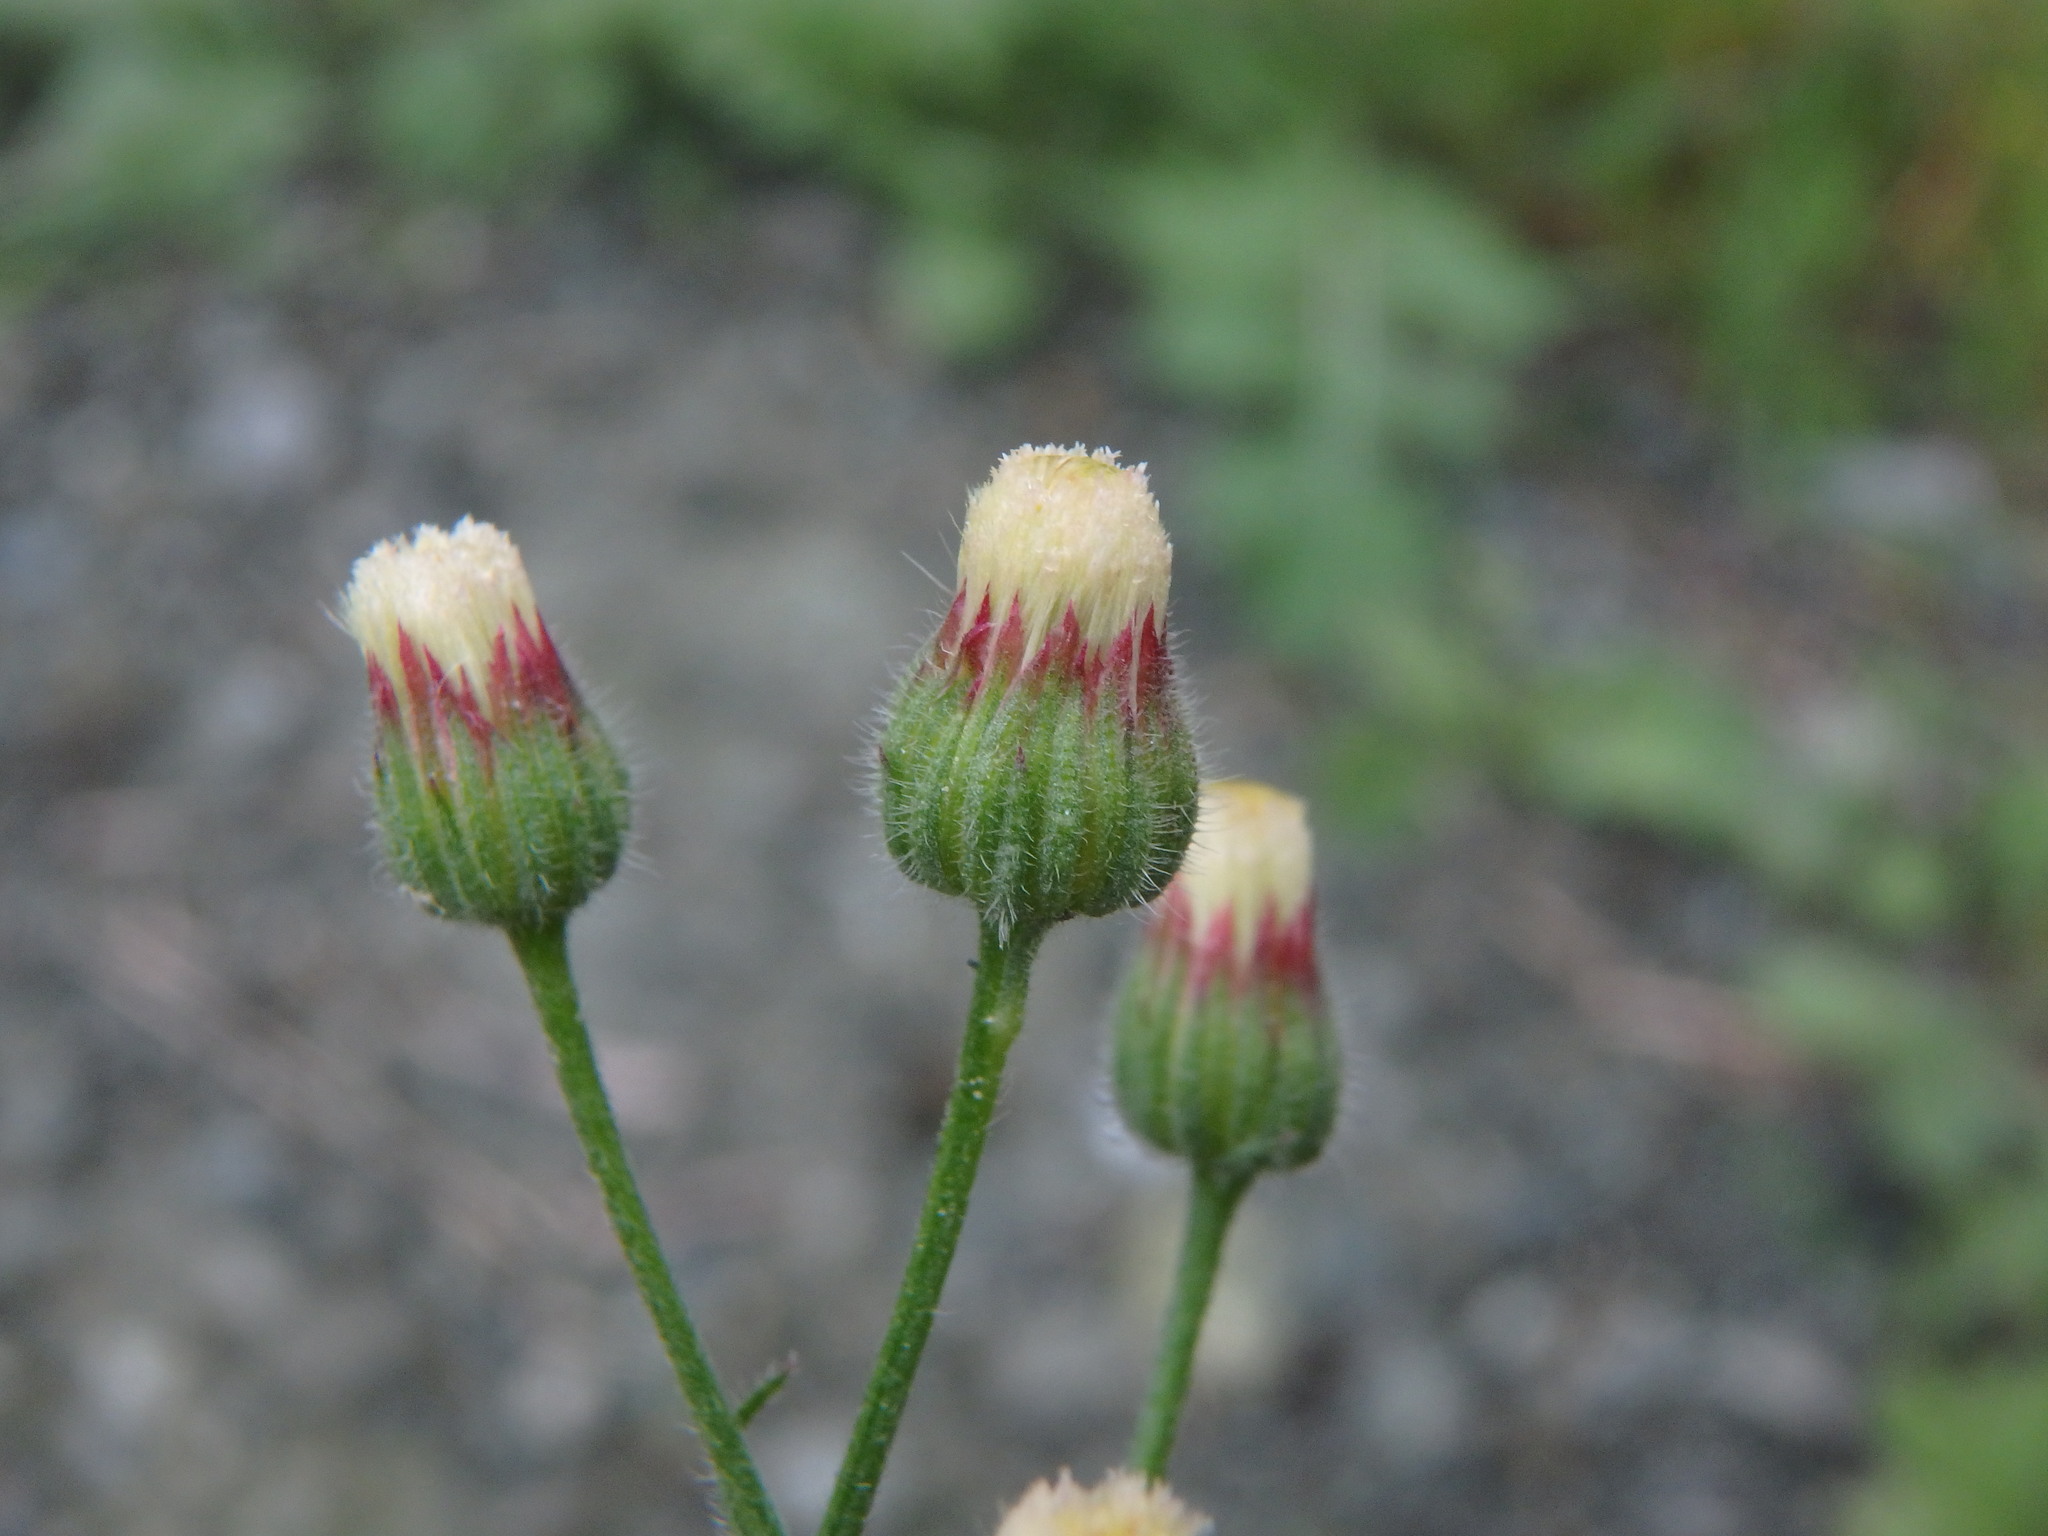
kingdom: Plantae
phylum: Tracheophyta
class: Magnoliopsida
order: Asterales
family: Asteraceae
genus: Erigeron
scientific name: Erigeron bonariensis
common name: Argentine fleabane
